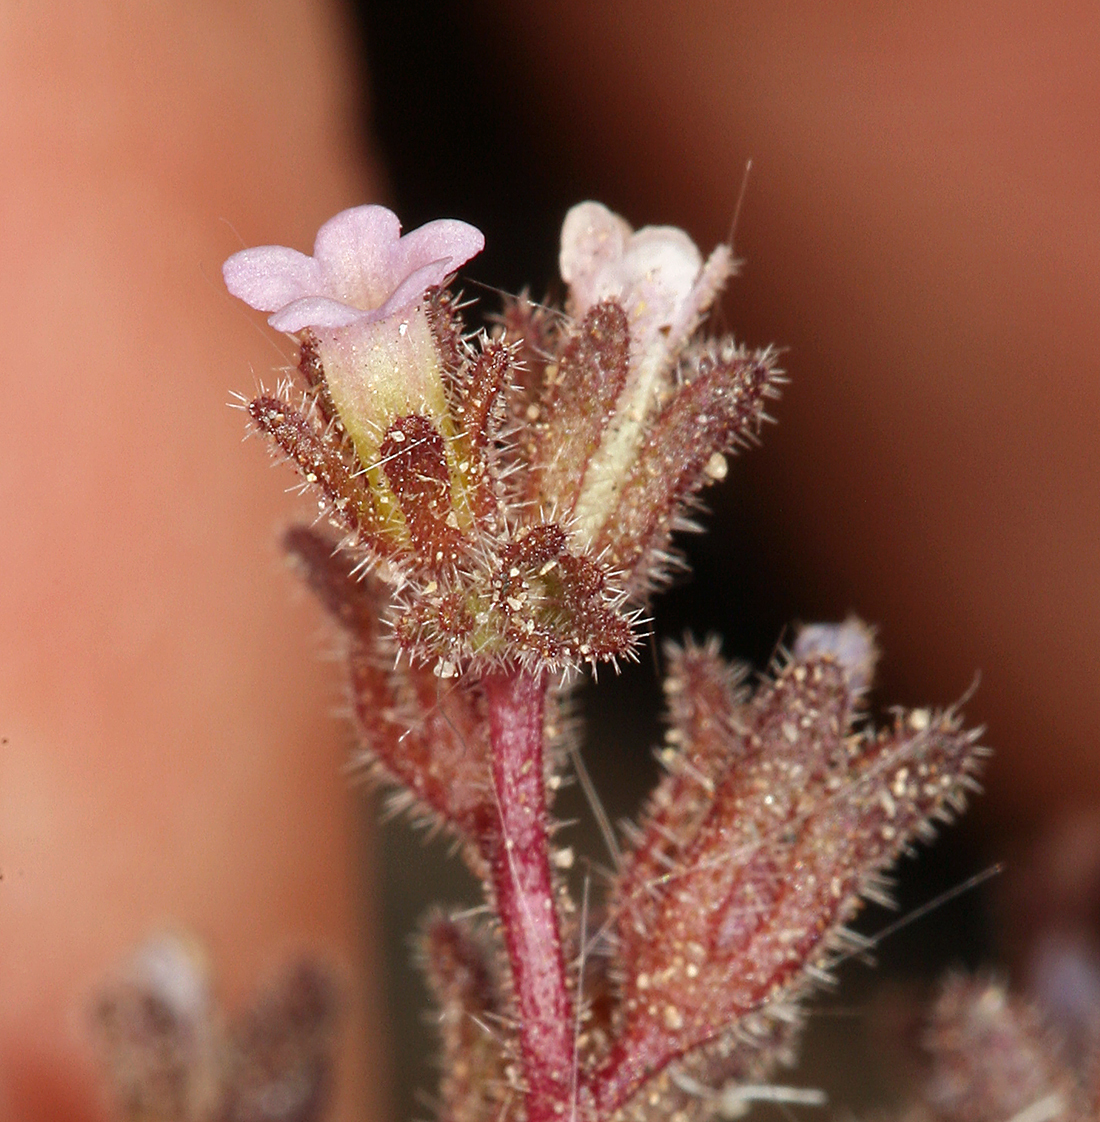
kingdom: Plantae
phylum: Tracheophyta
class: Magnoliopsida
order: Boraginales
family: Hydrophyllaceae
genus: Phacelia
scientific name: Phacelia saxicola
